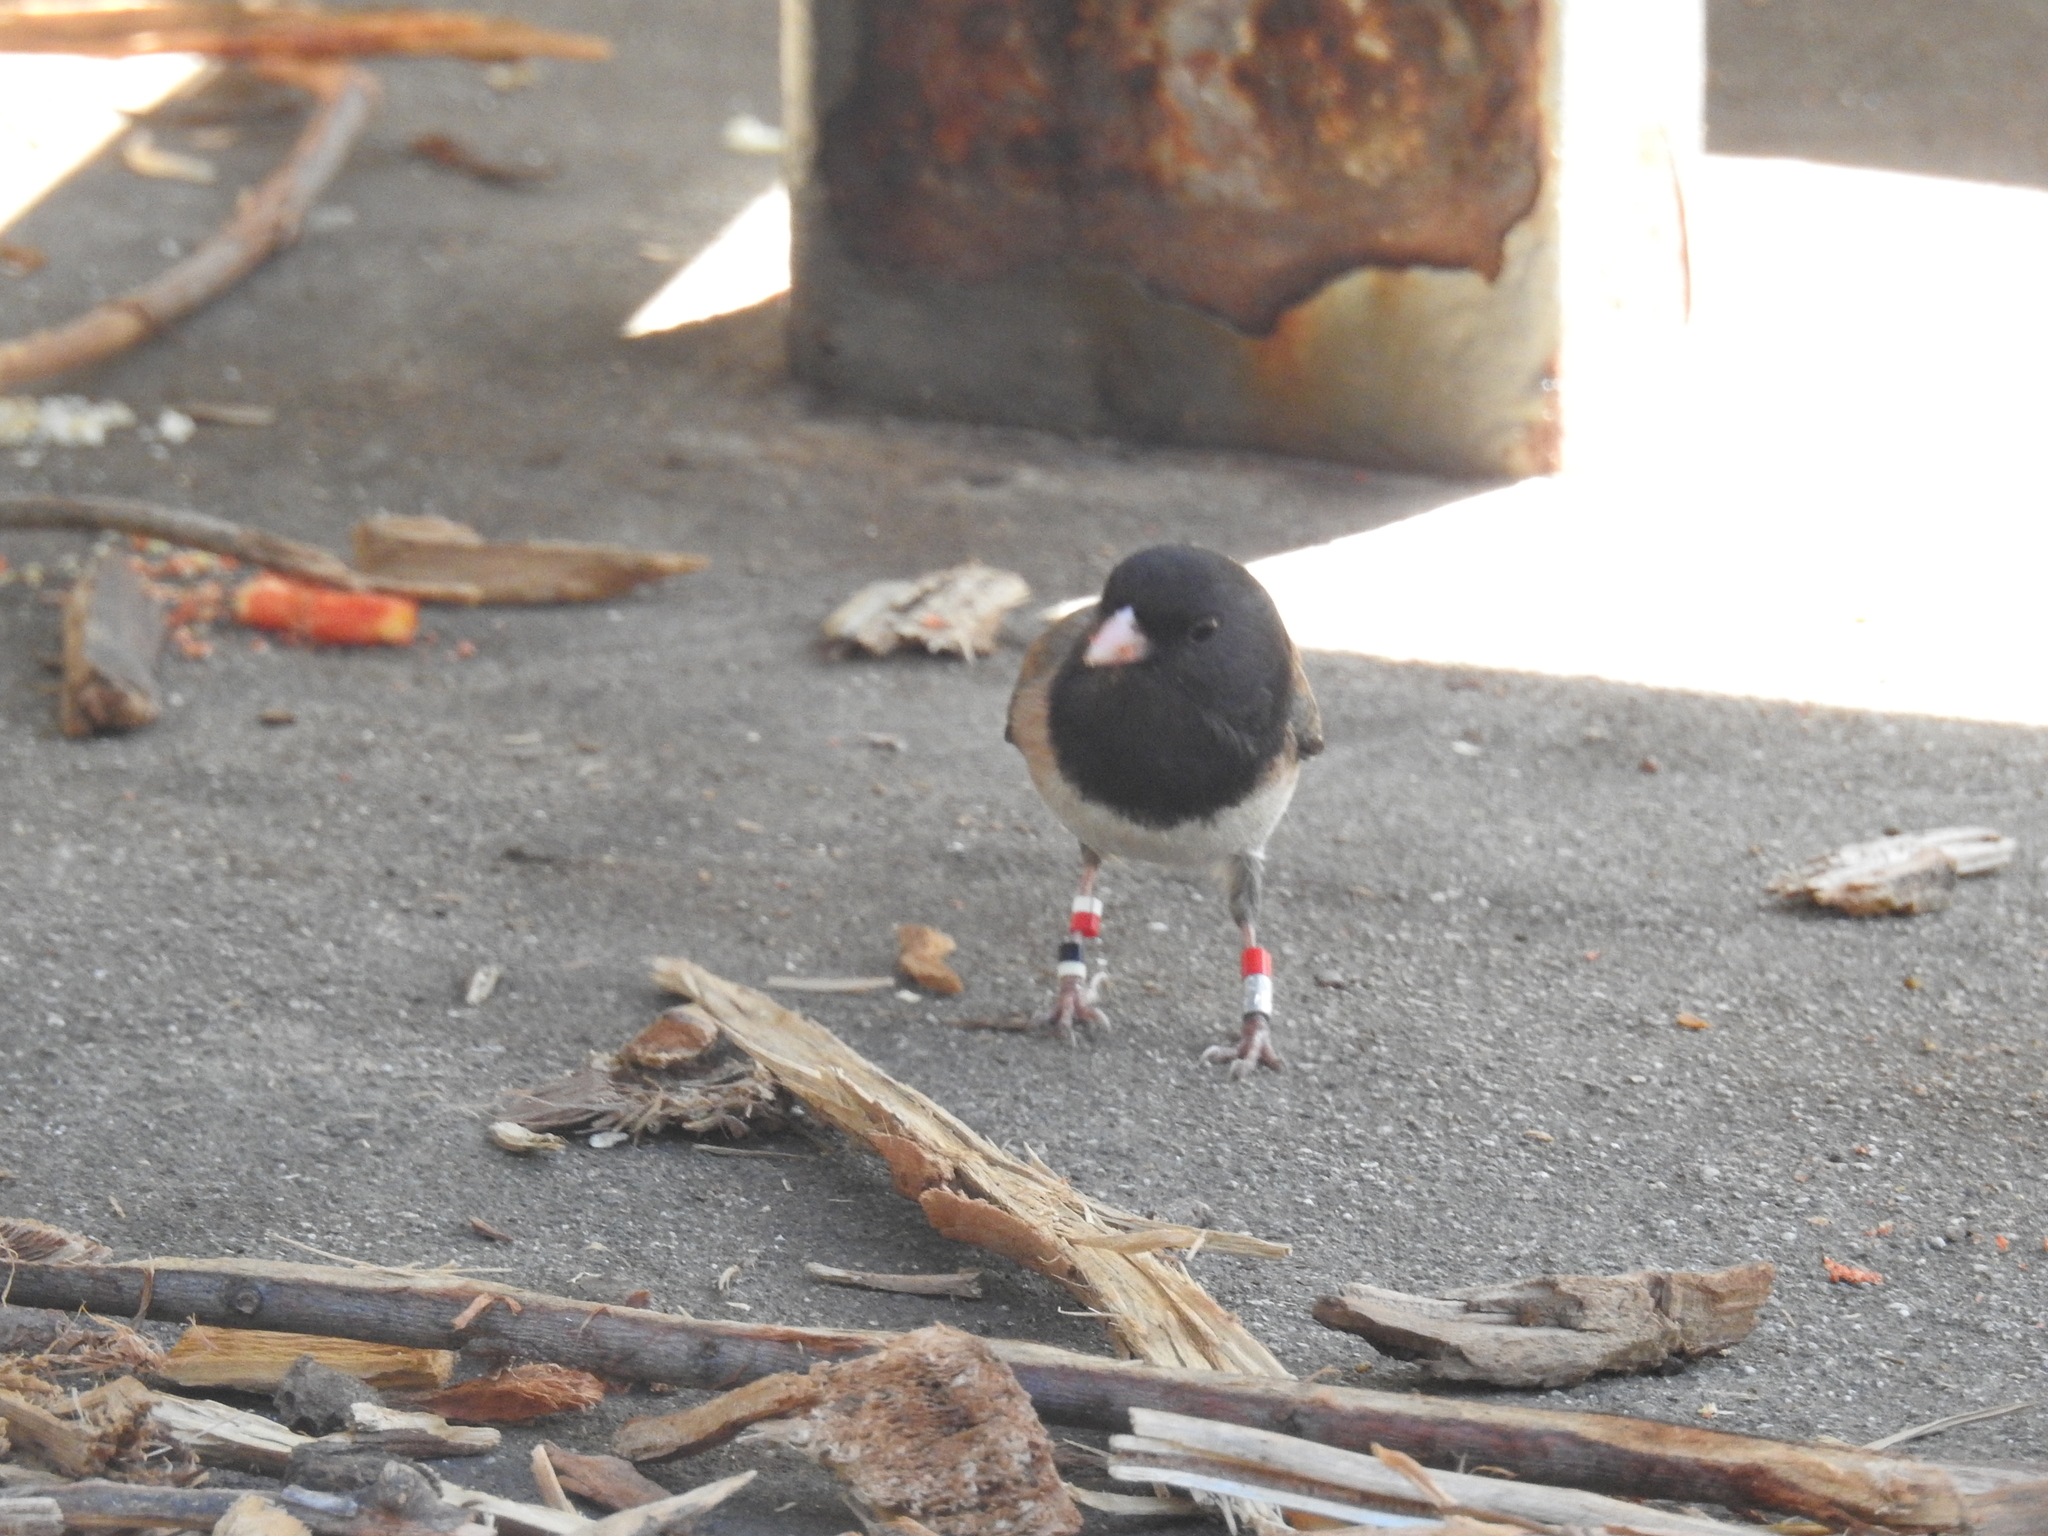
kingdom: Animalia
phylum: Chordata
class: Aves
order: Passeriformes
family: Passerellidae
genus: Junco
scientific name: Junco hyemalis
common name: Dark-eyed junco
